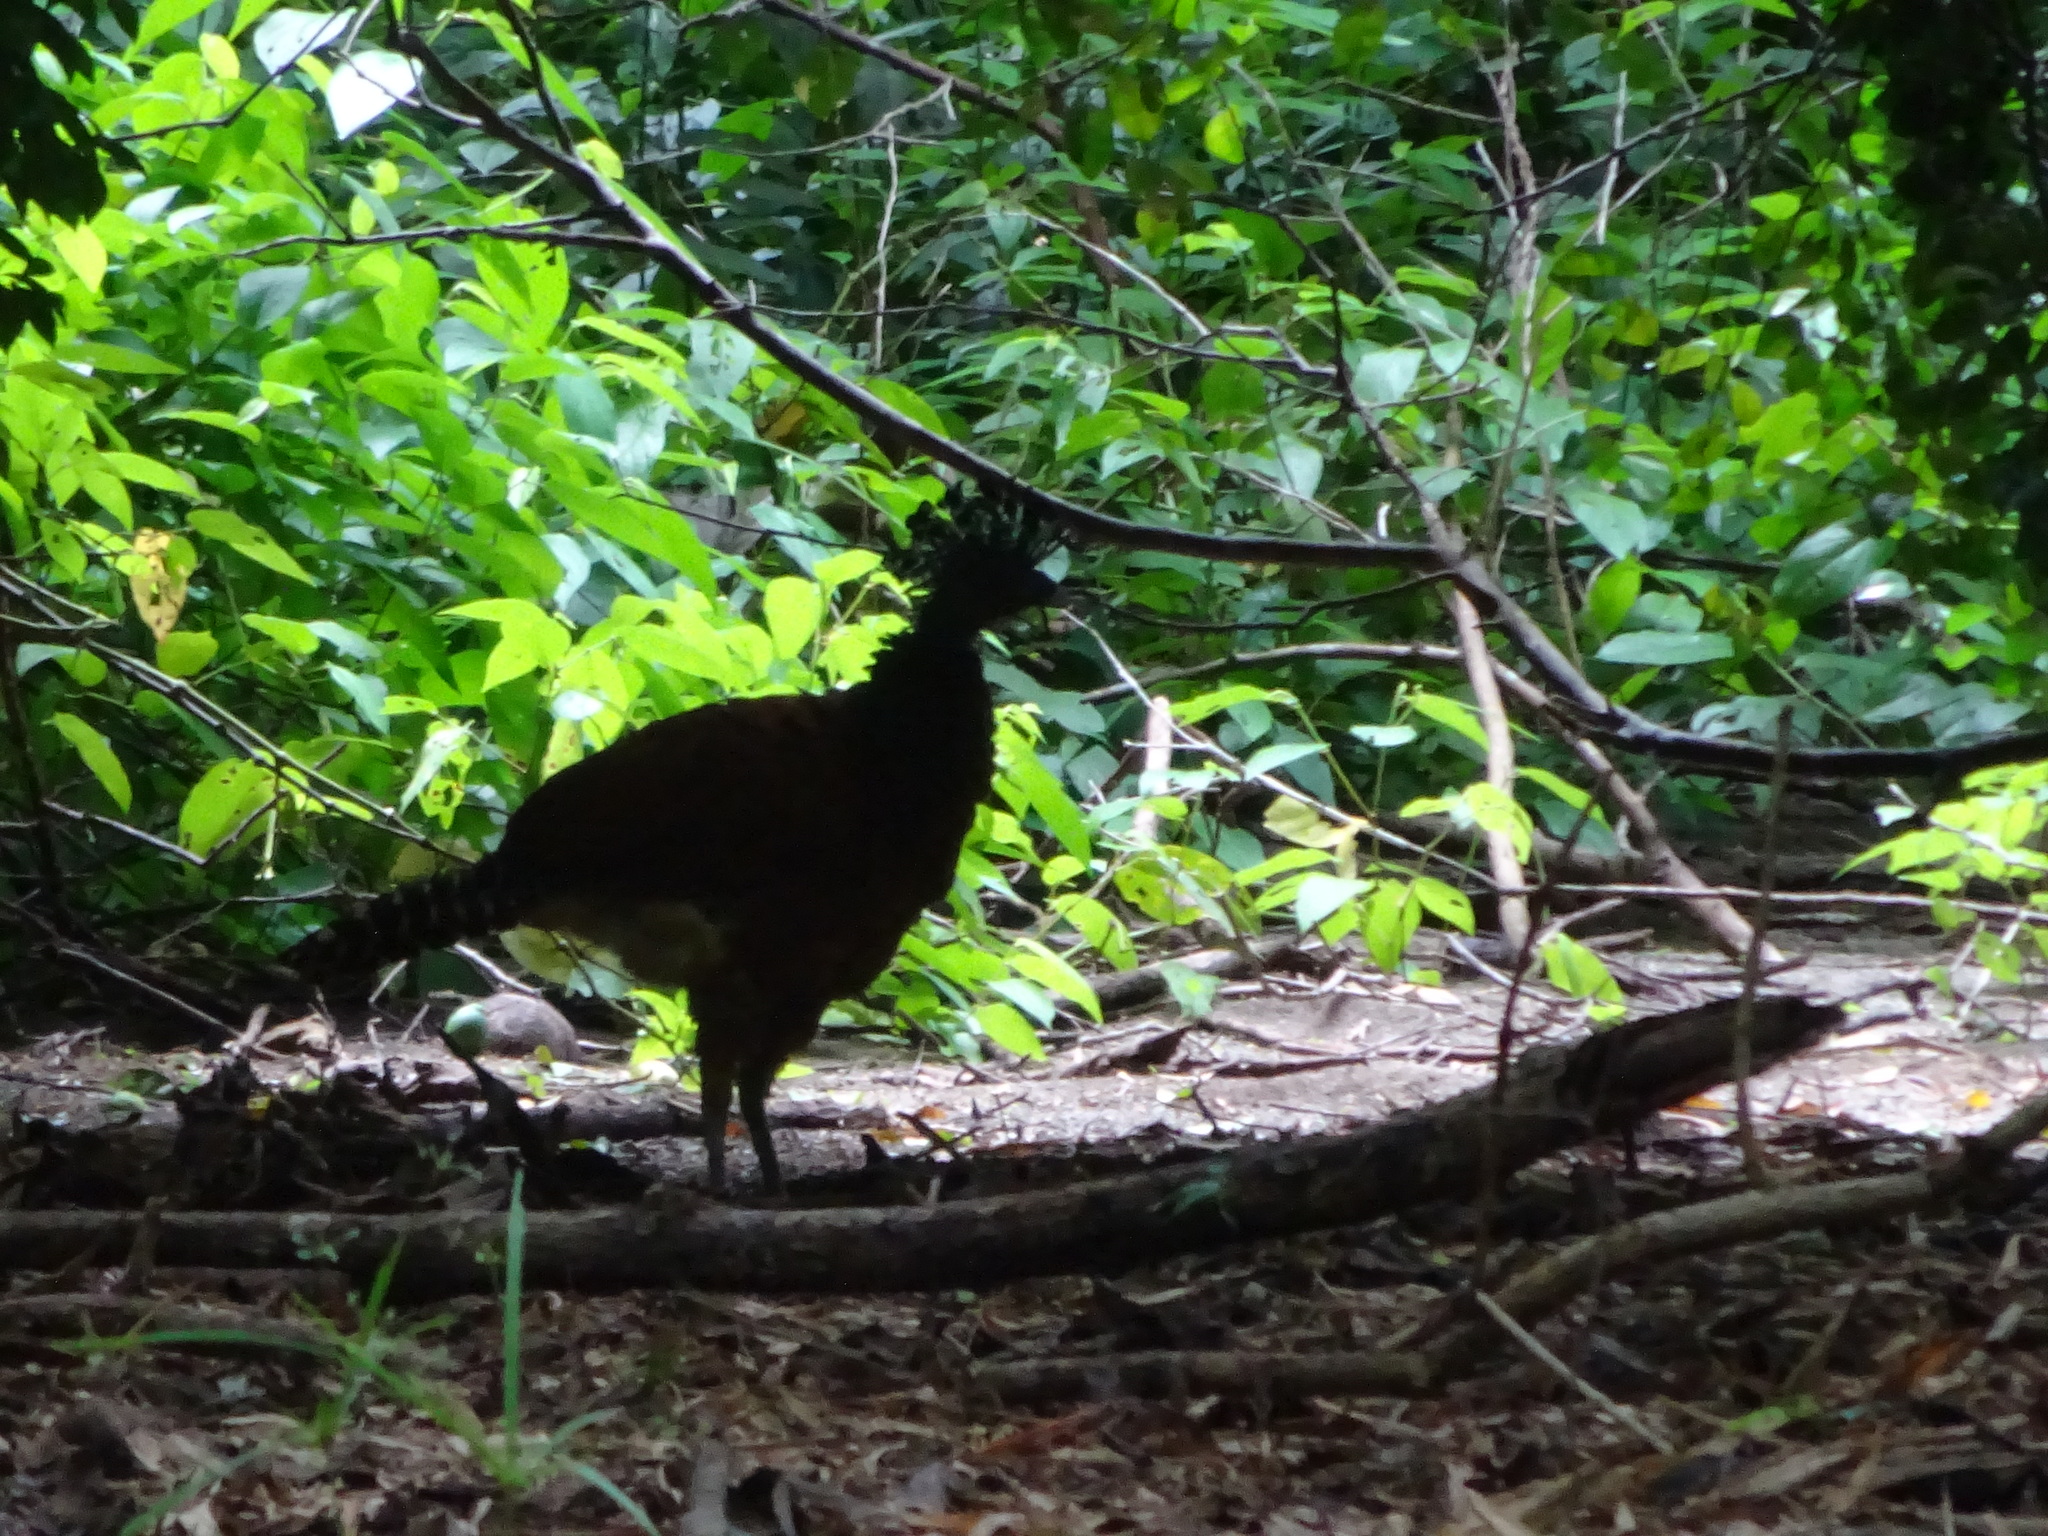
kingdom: Animalia
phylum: Chordata
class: Aves
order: Galliformes
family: Cracidae
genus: Crax
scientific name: Crax rubra
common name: Great curassow
